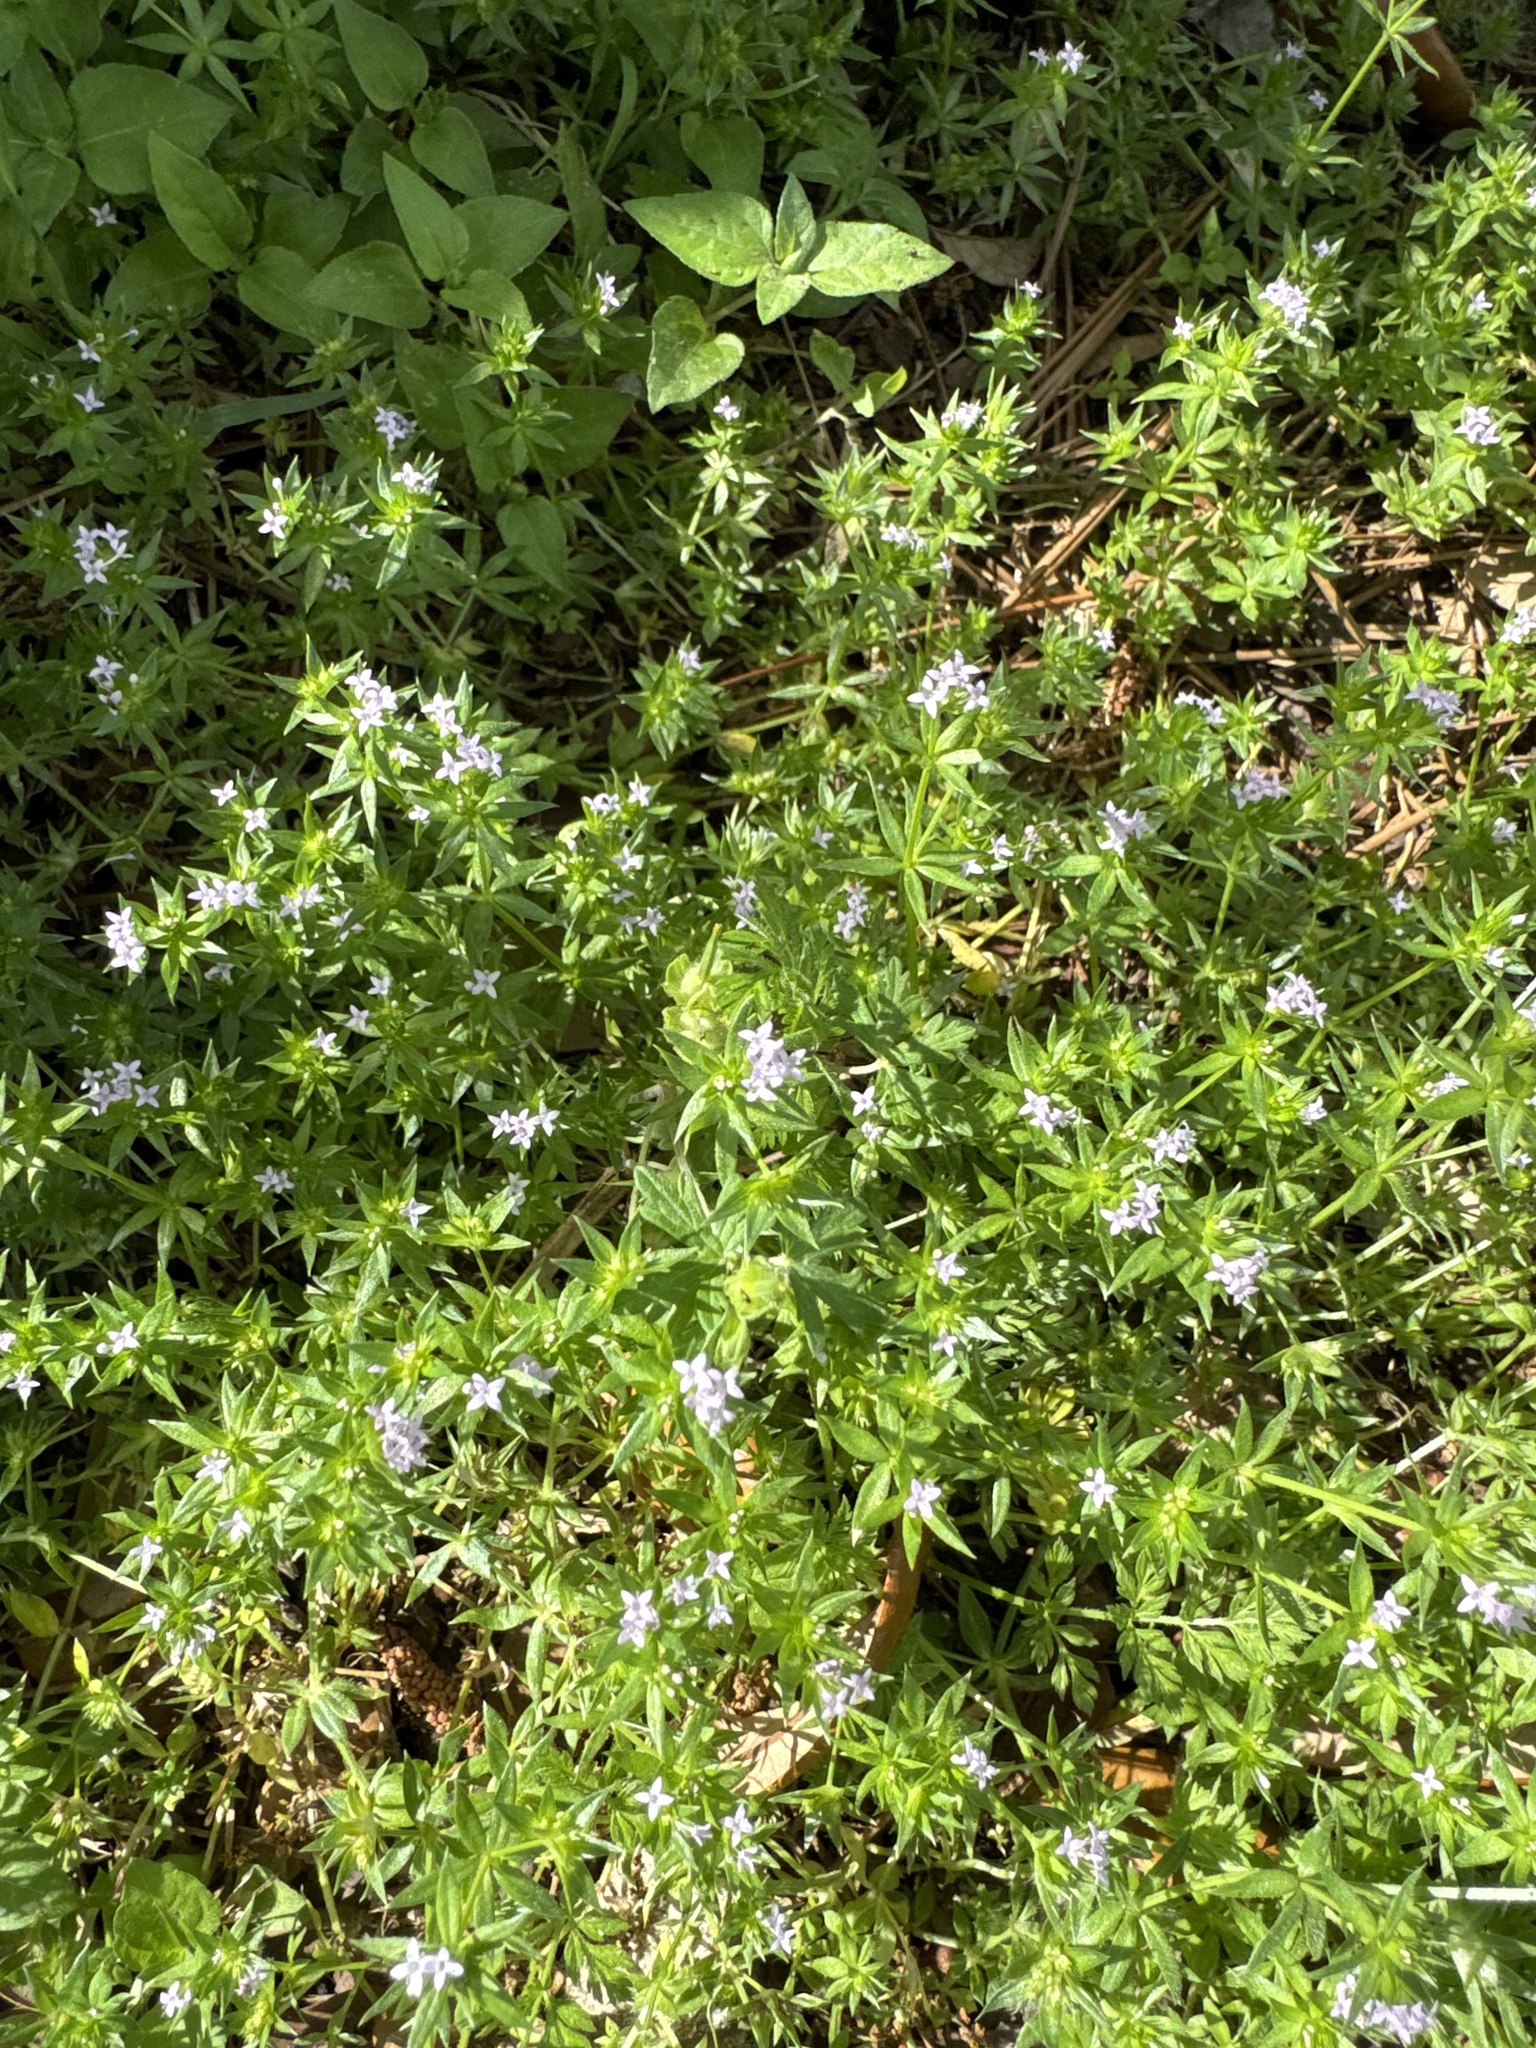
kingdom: Plantae
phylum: Tracheophyta
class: Magnoliopsida
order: Gentianales
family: Rubiaceae
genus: Sherardia
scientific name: Sherardia arvensis
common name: Field madder
